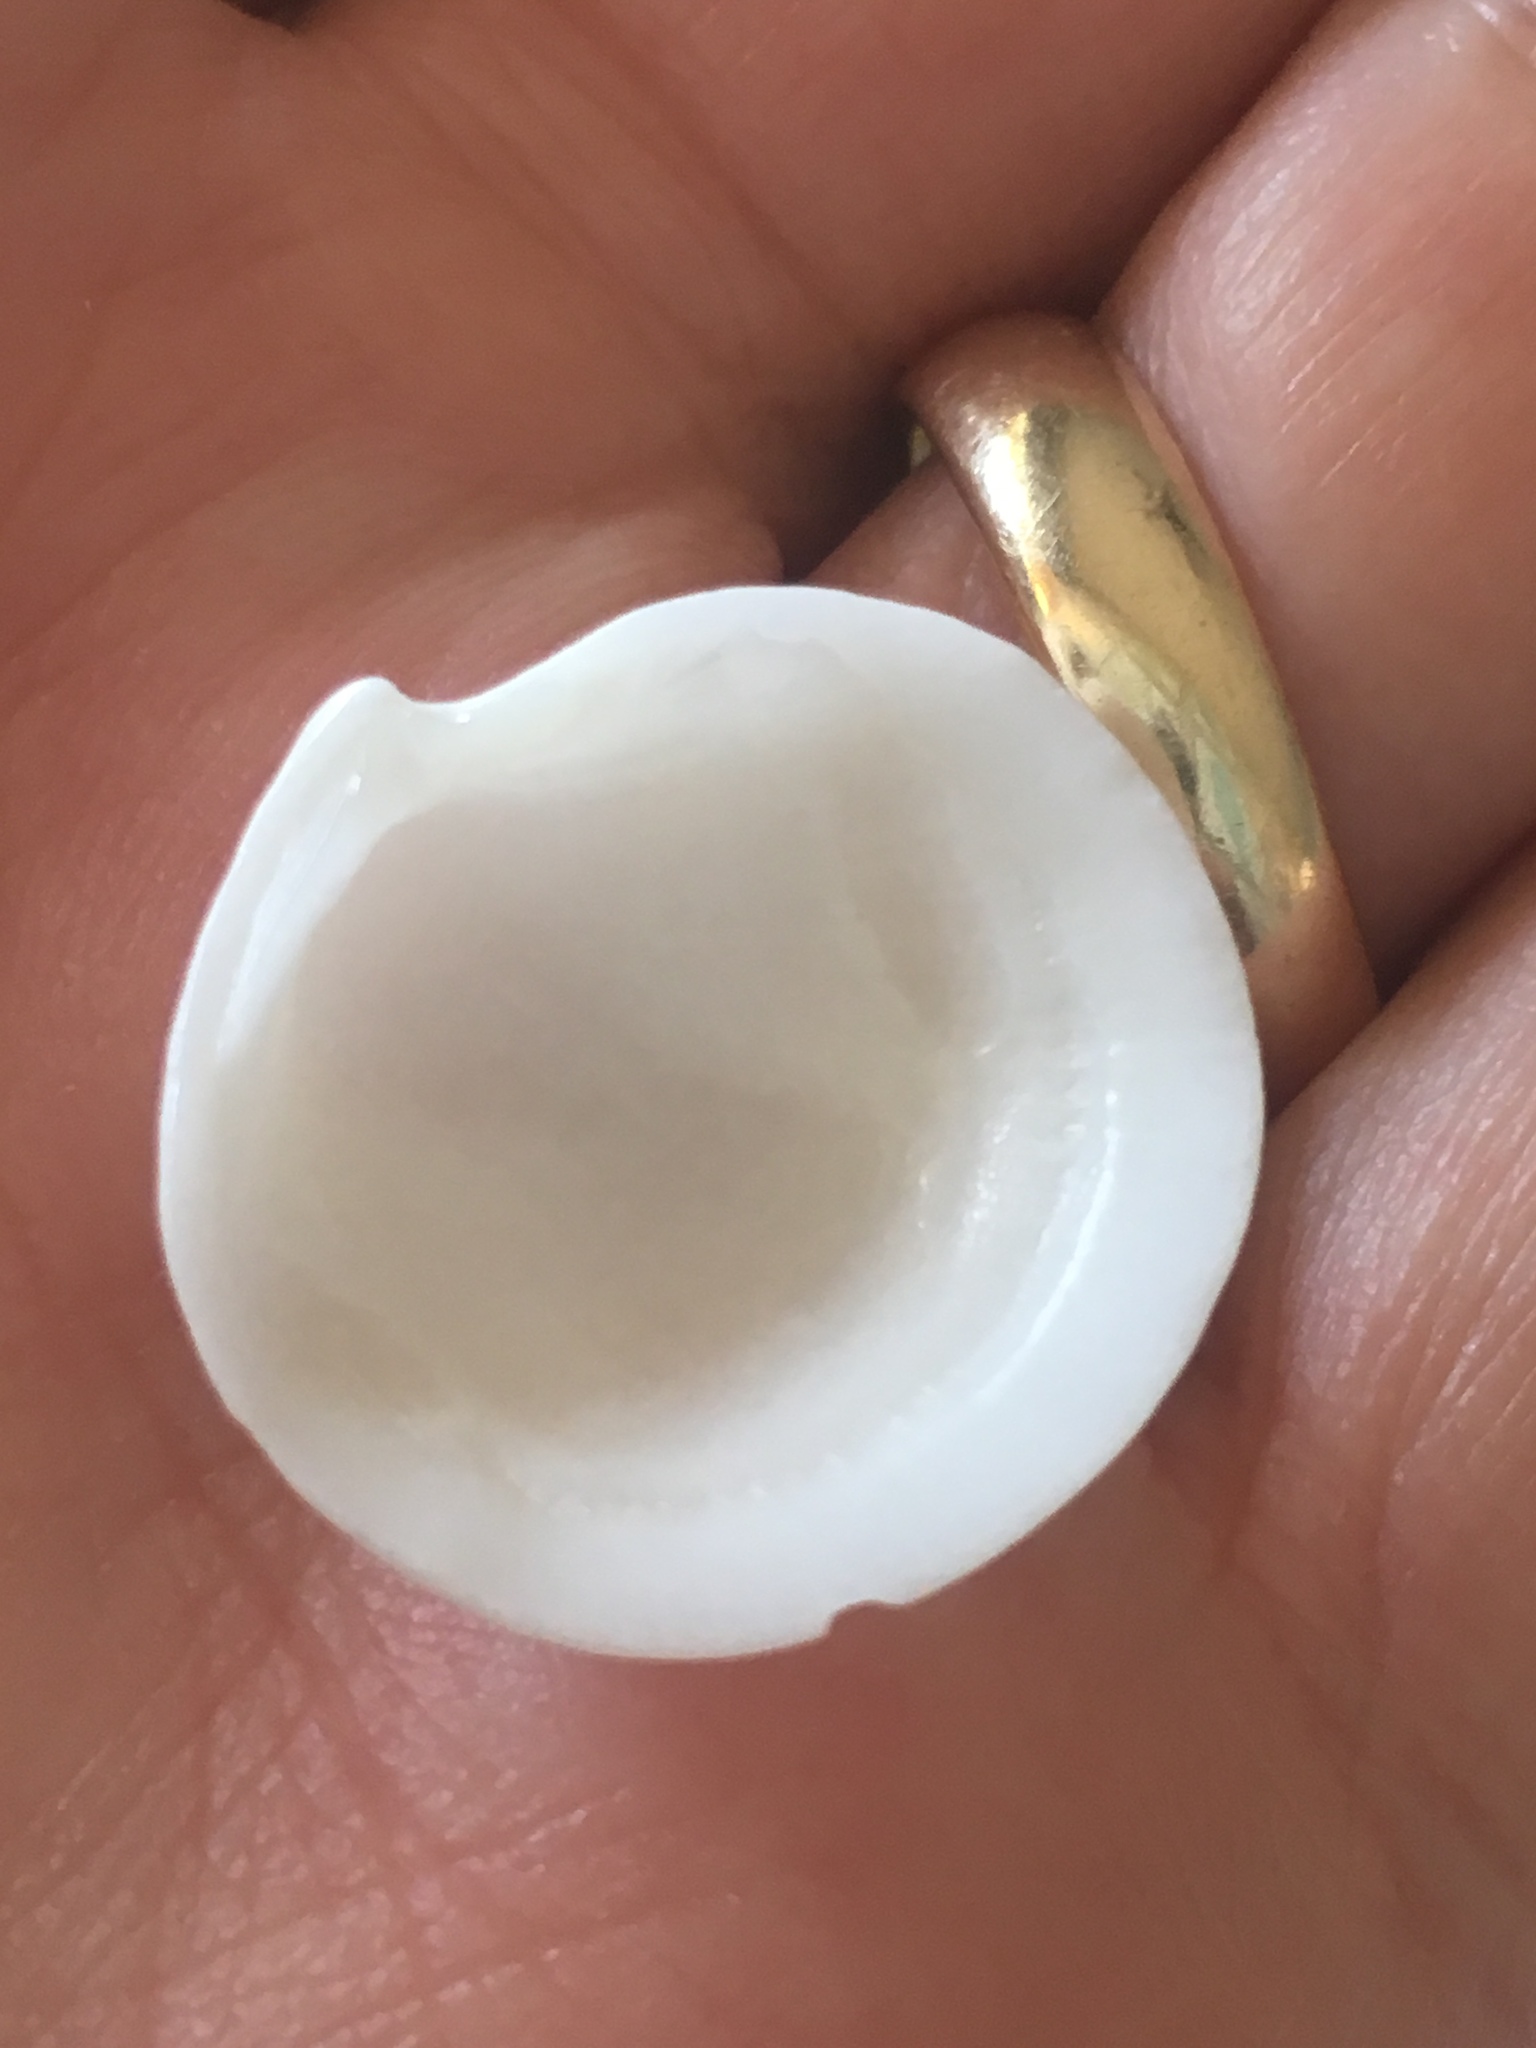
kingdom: Animalia
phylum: Mollusca
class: Bivalvia
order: Lucinida
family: Lucinidae
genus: Callucina
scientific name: Callucina keenae
